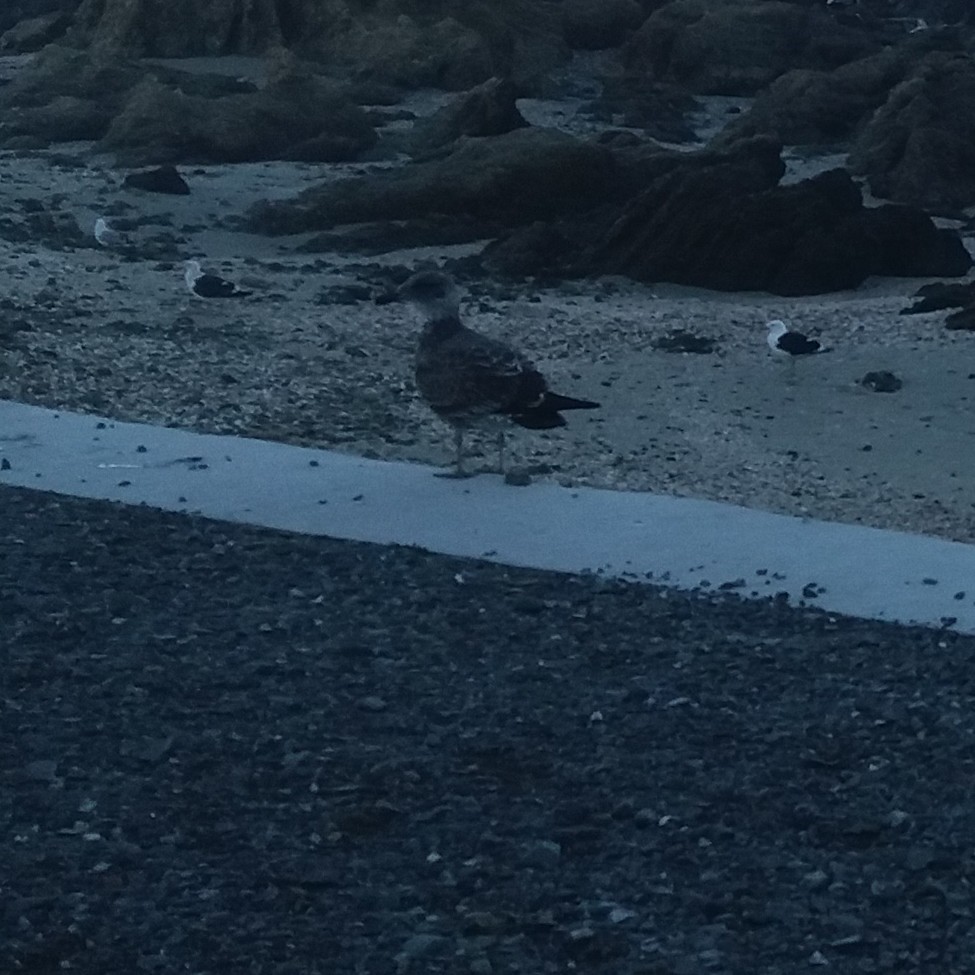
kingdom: Animalia
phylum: Chordata
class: Aves
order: Charadriiformes
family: Laridae
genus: Larus
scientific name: Larus dominicanus
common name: Kelp gull
